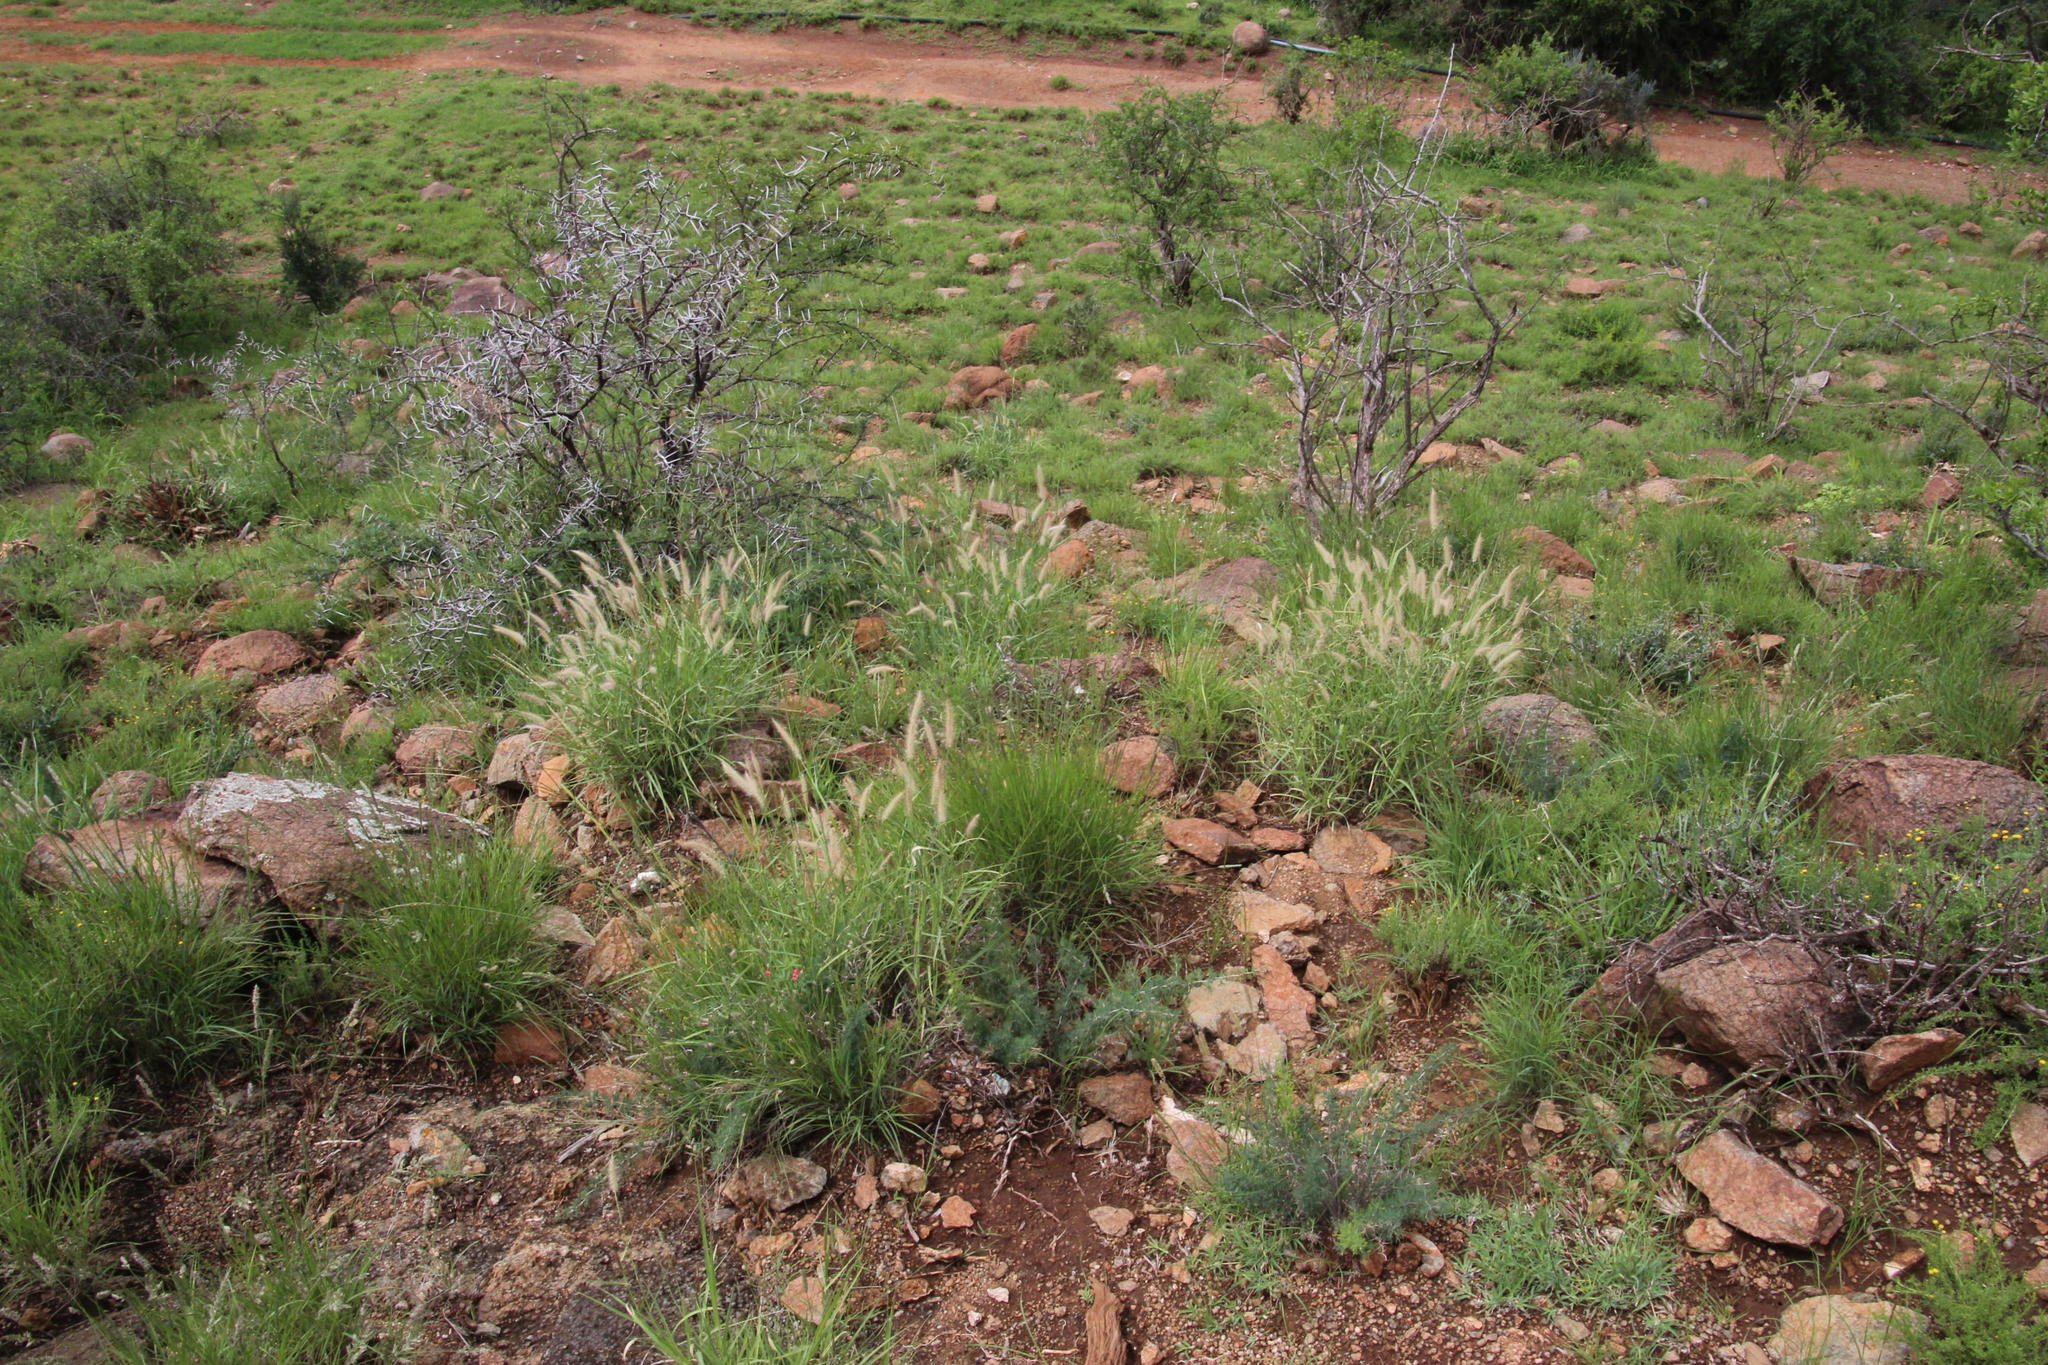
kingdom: Plantae
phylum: Tracheophyta
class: Liliopsida
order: Poales
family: Poaceae
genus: Cenchrus
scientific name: Cenchrus ciliaris
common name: Buffelgrass
